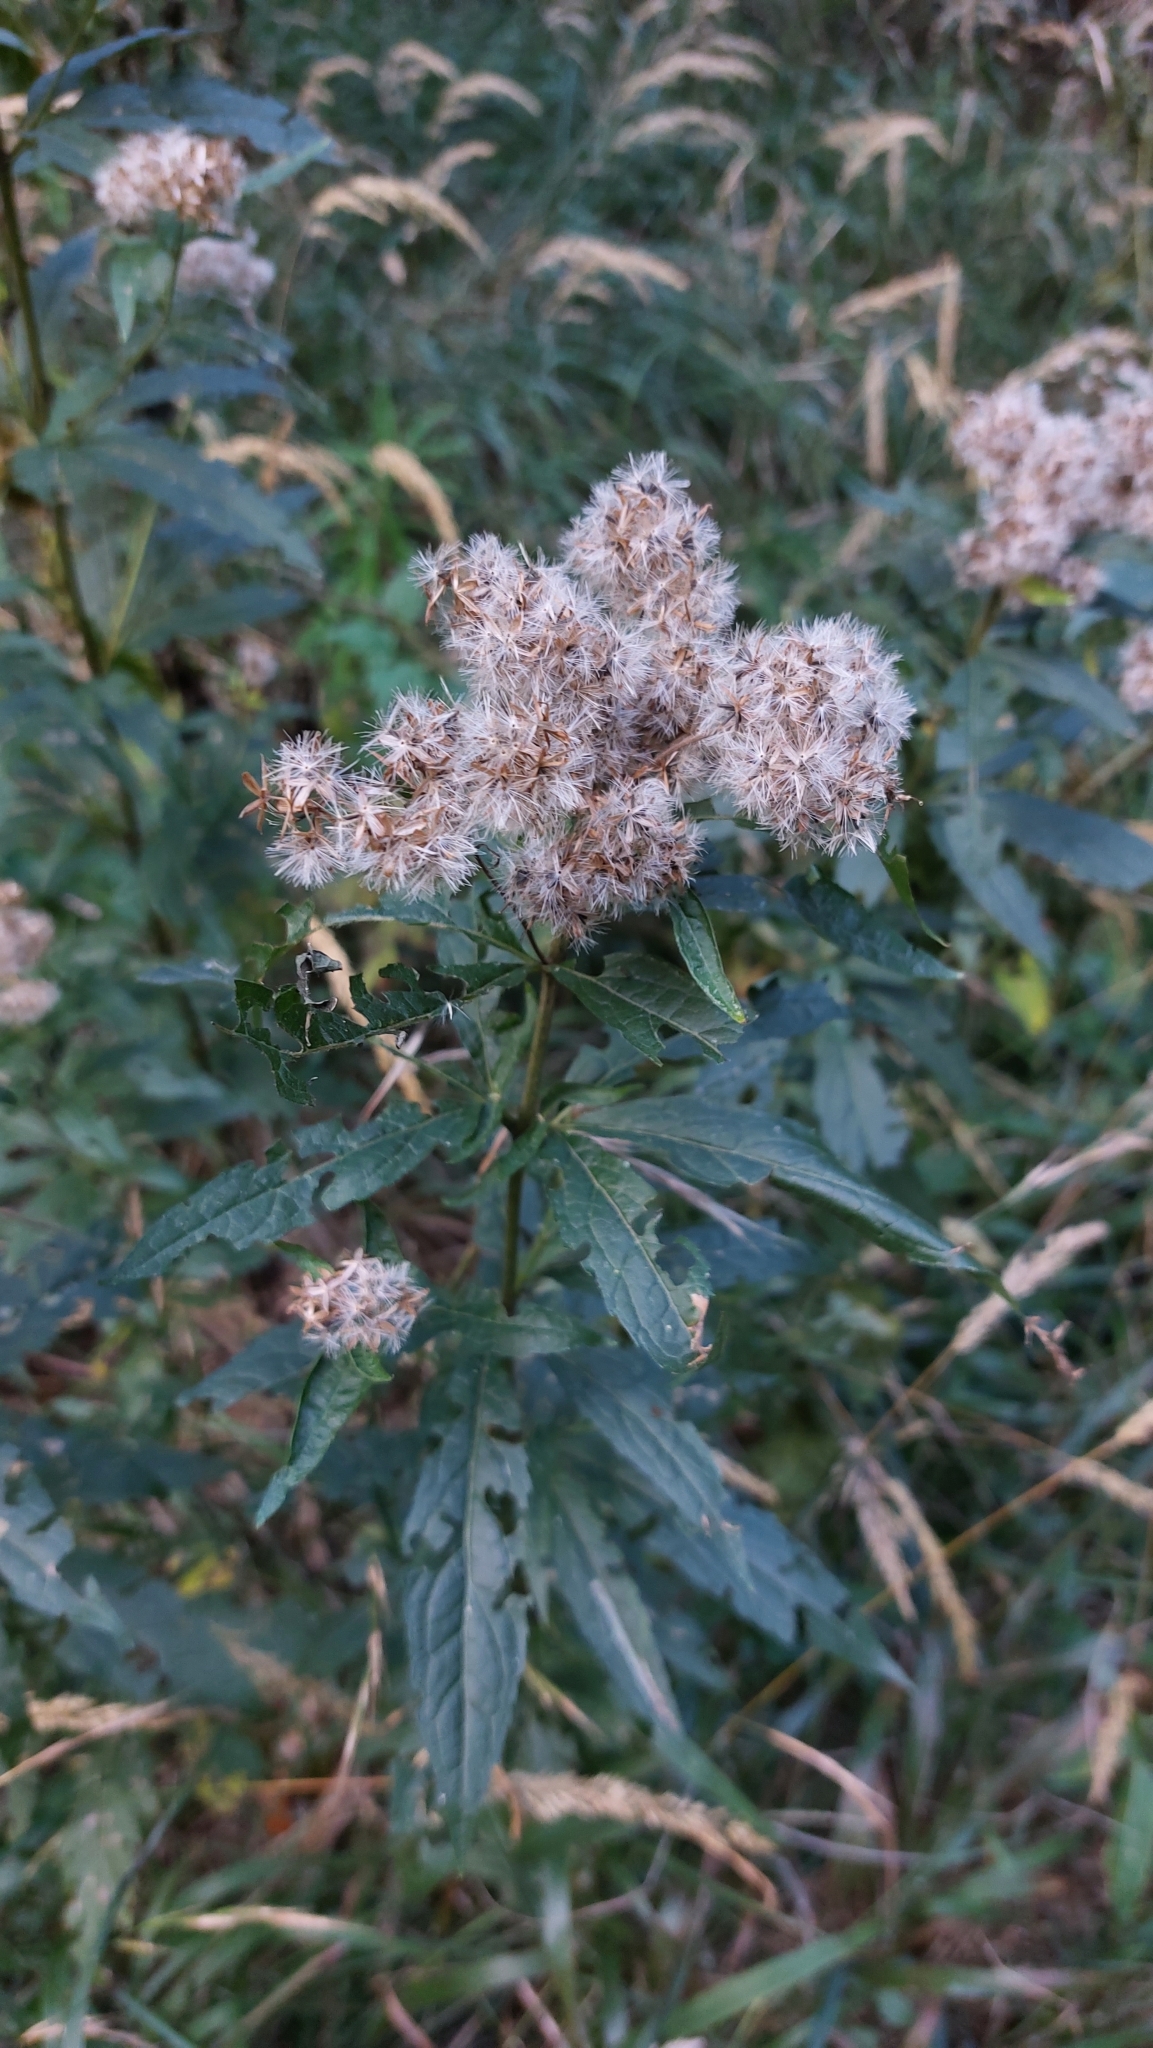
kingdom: Plantae
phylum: Tracheophyta
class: Magnoliopsida
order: Asterales
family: Asteraceae
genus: Eupatorium
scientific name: Eupatorium cannabinum
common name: Hemp-agrimony
